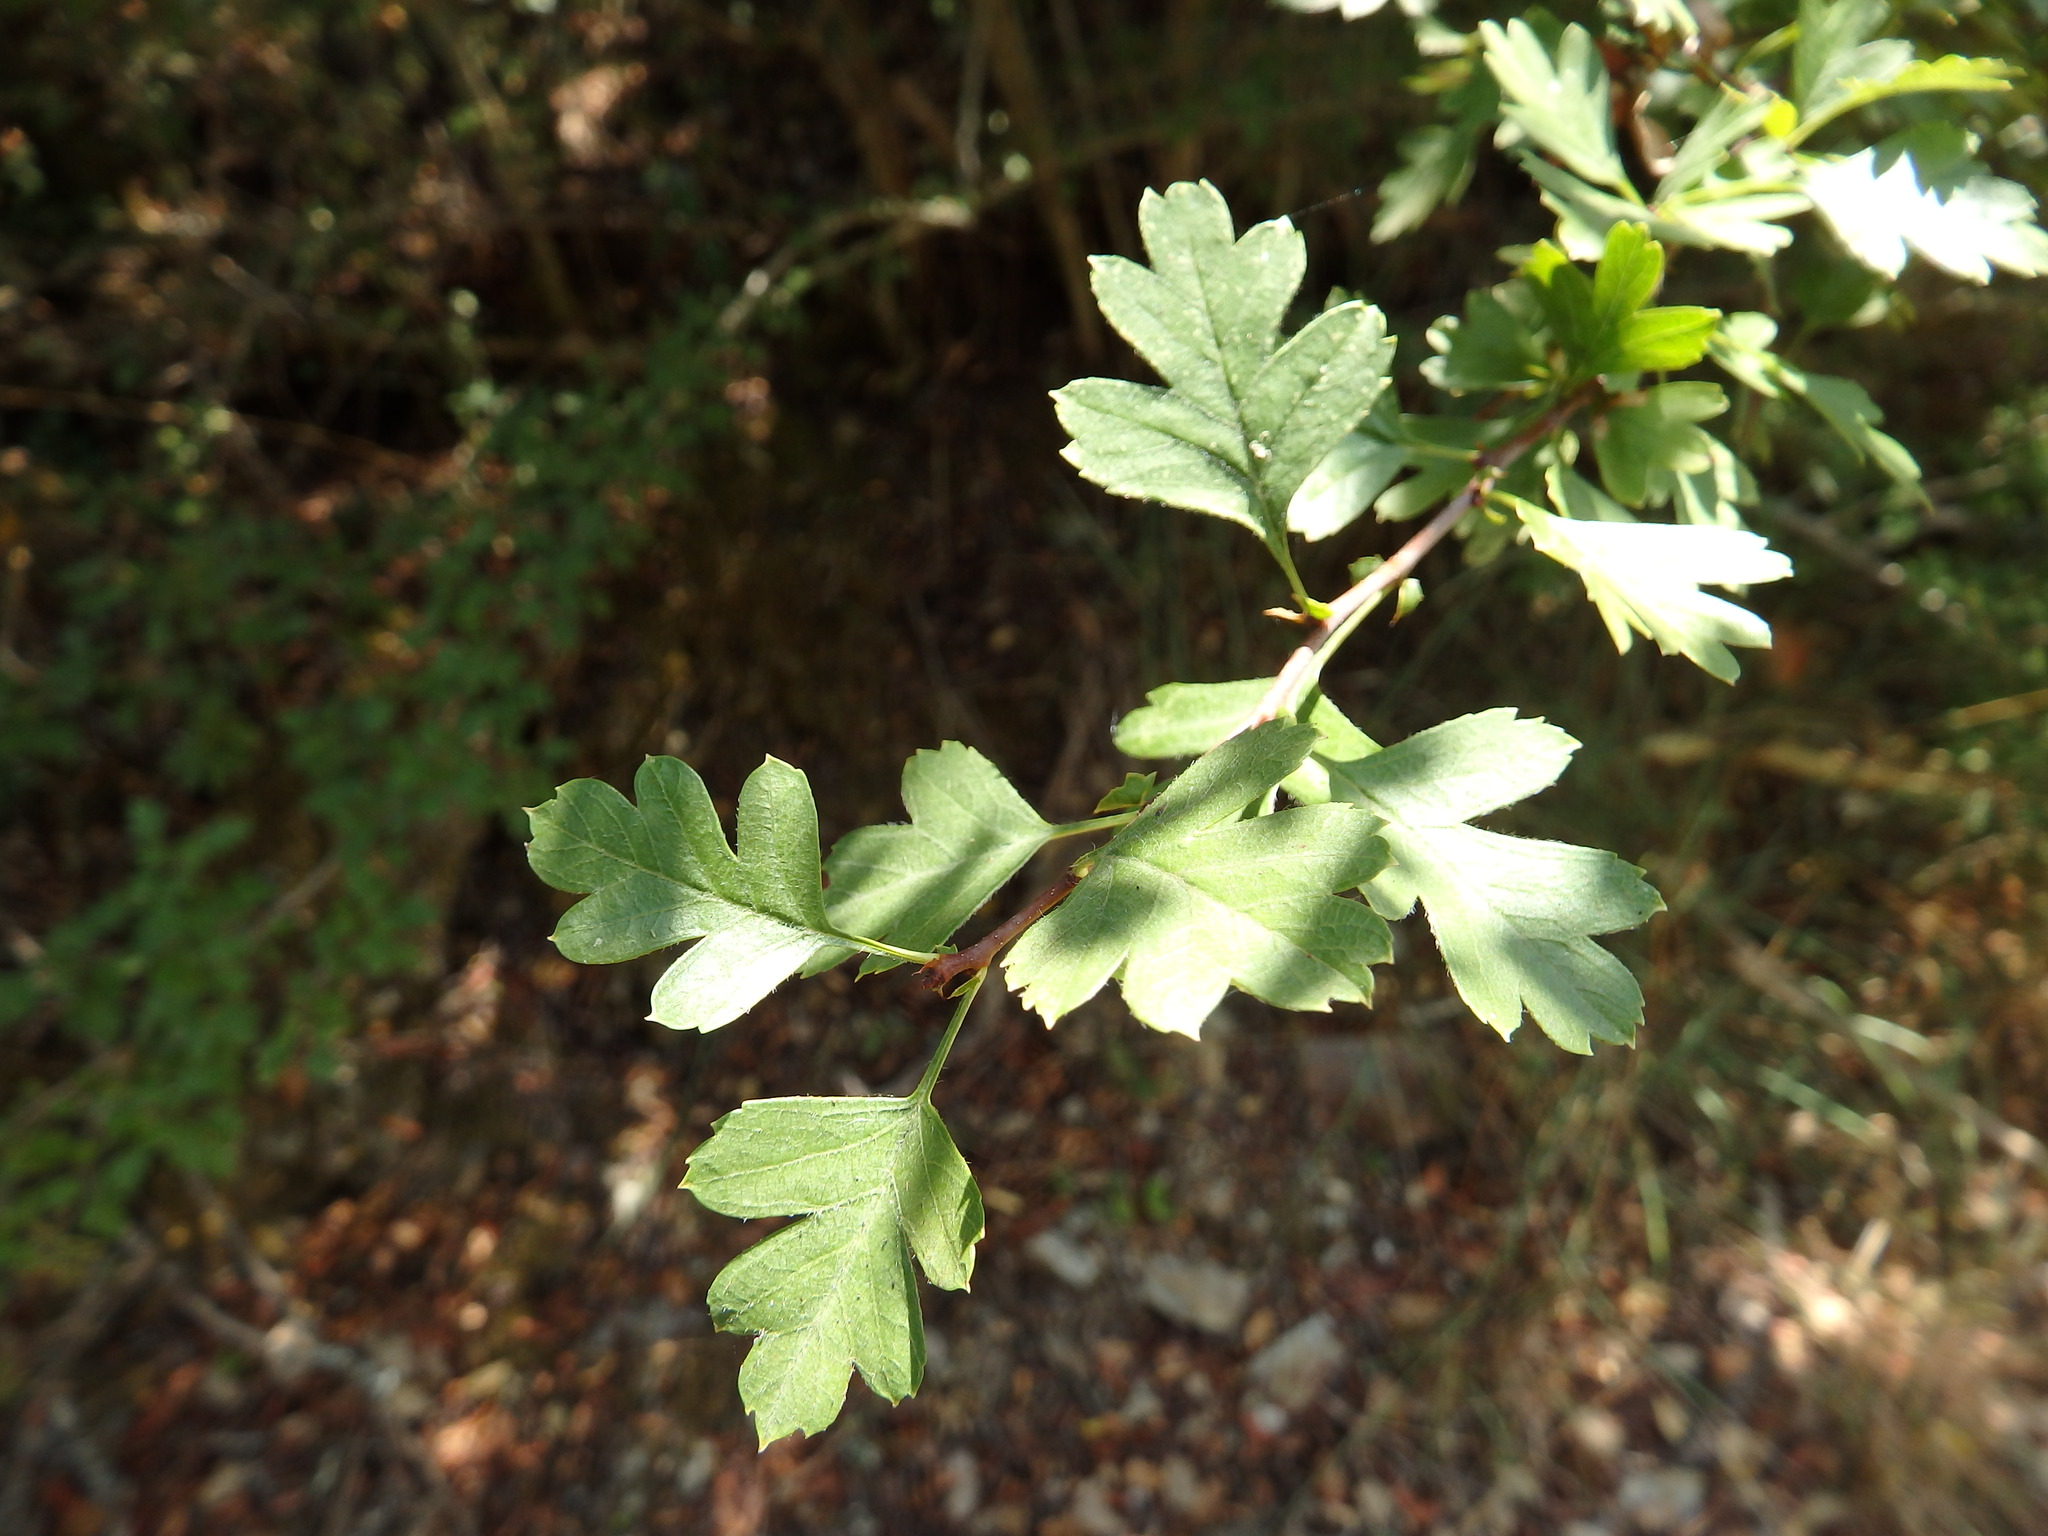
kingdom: Plantae
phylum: Tracheophyta
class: Magnoliopsida
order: Rosales
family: Rosaceae
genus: Crataegus
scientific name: Crataegus monogyna
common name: Hawthorn
